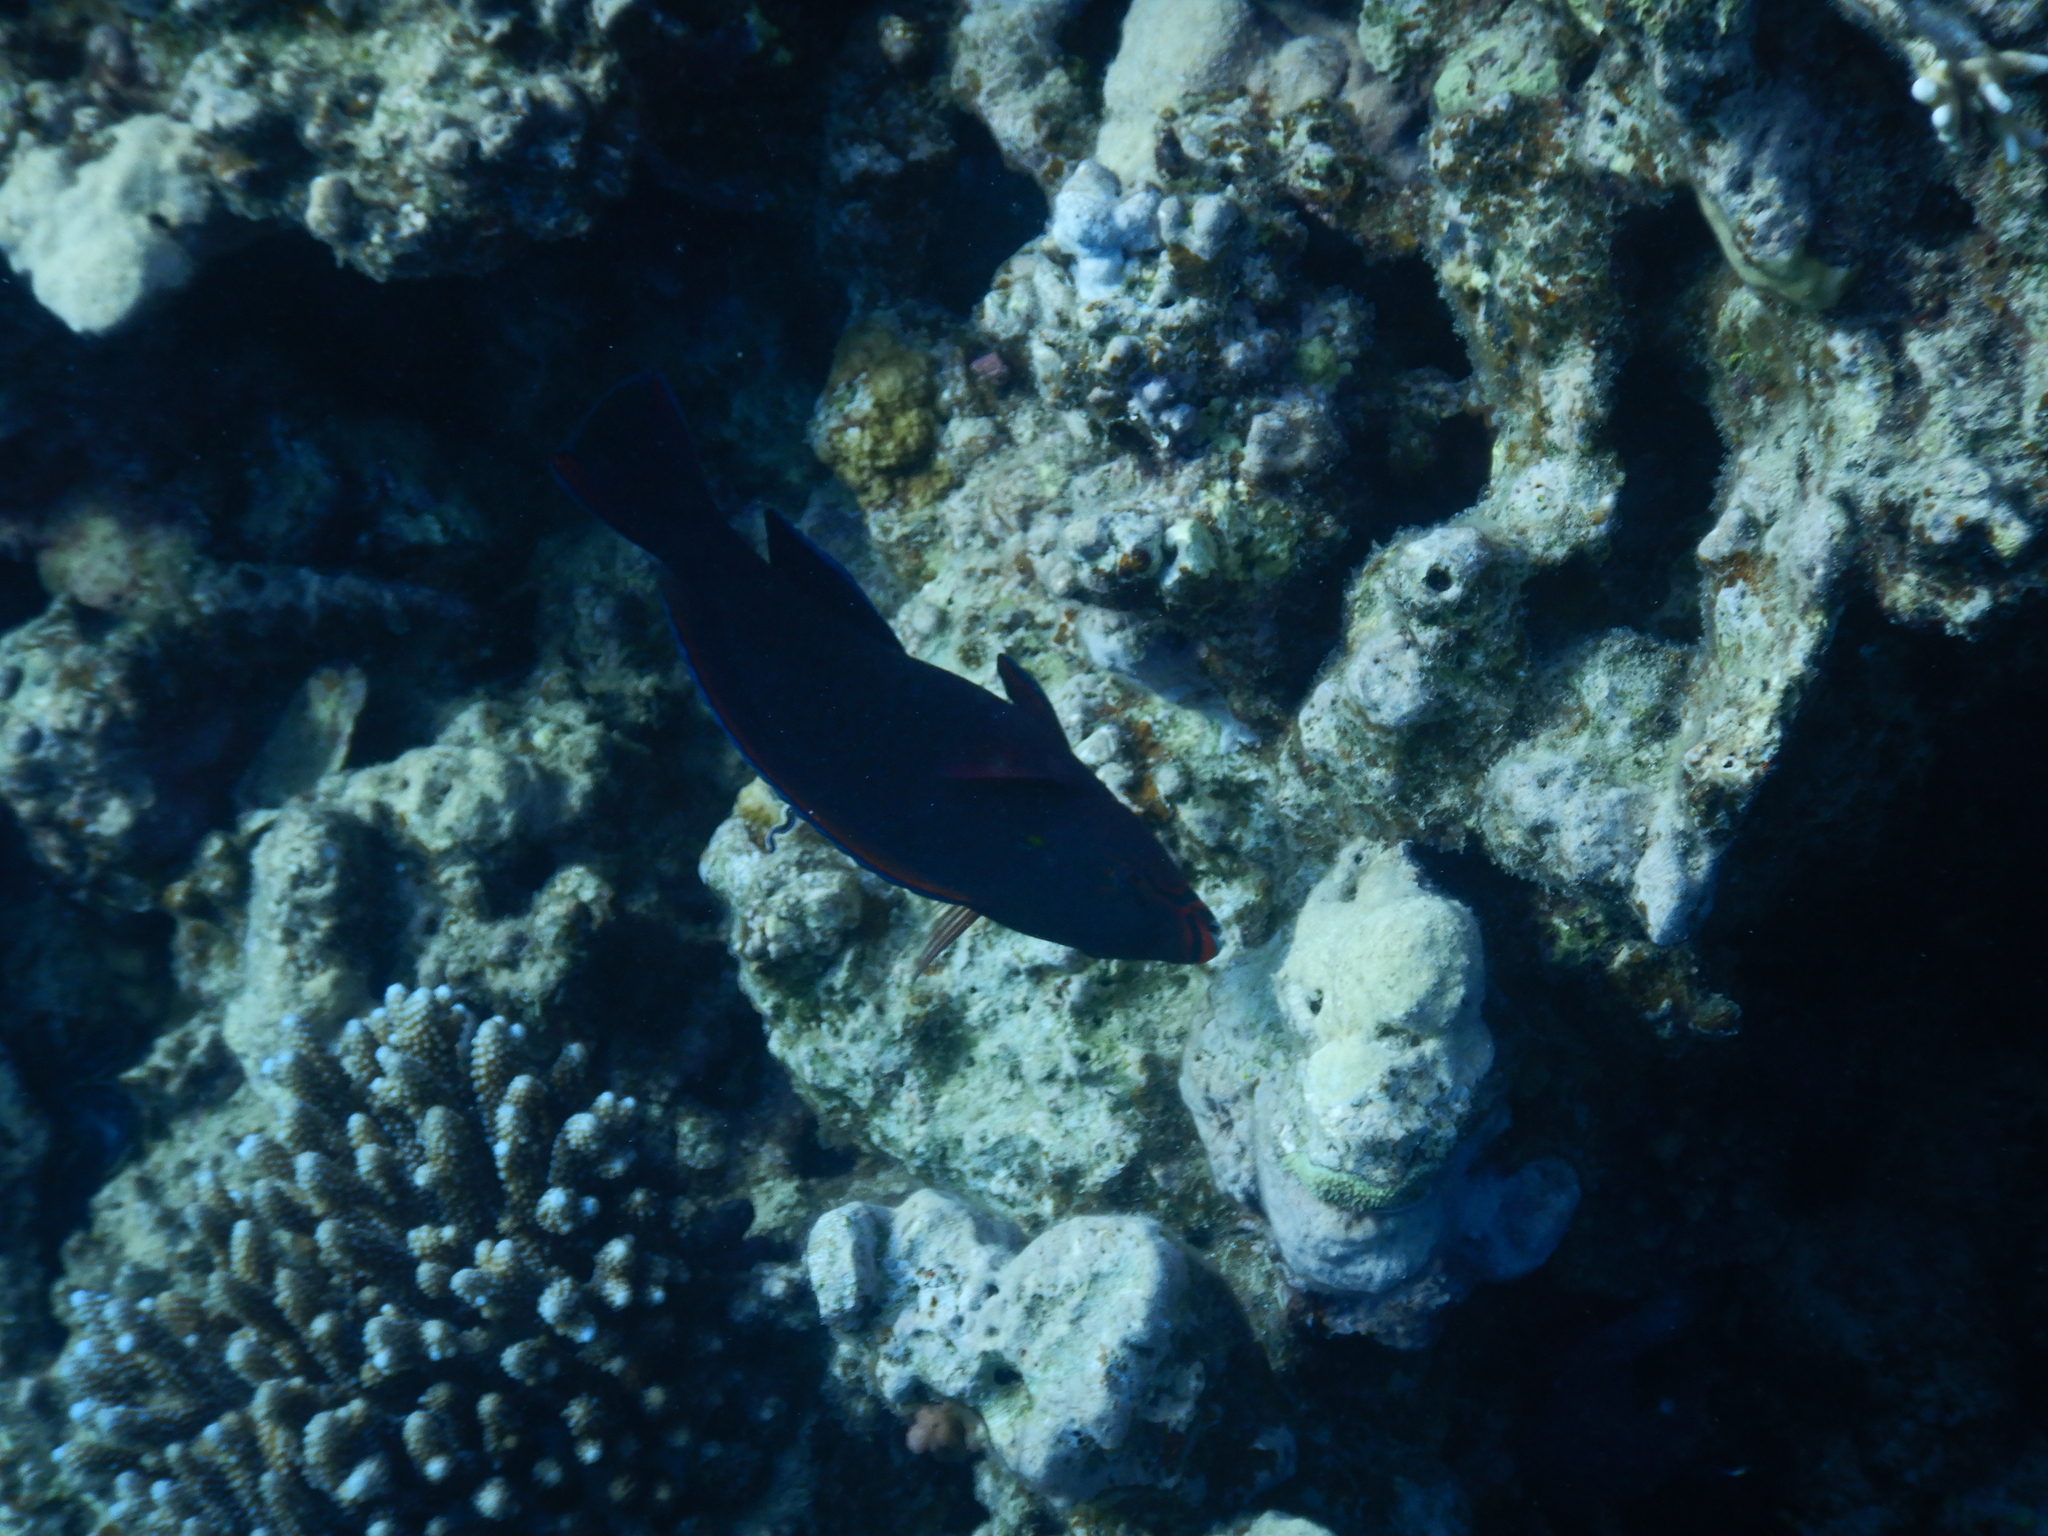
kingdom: Animalia
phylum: Chordata
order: Perciformes
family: Scaridae
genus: Scarus
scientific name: Scarus niger
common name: Dusky parrotfish
